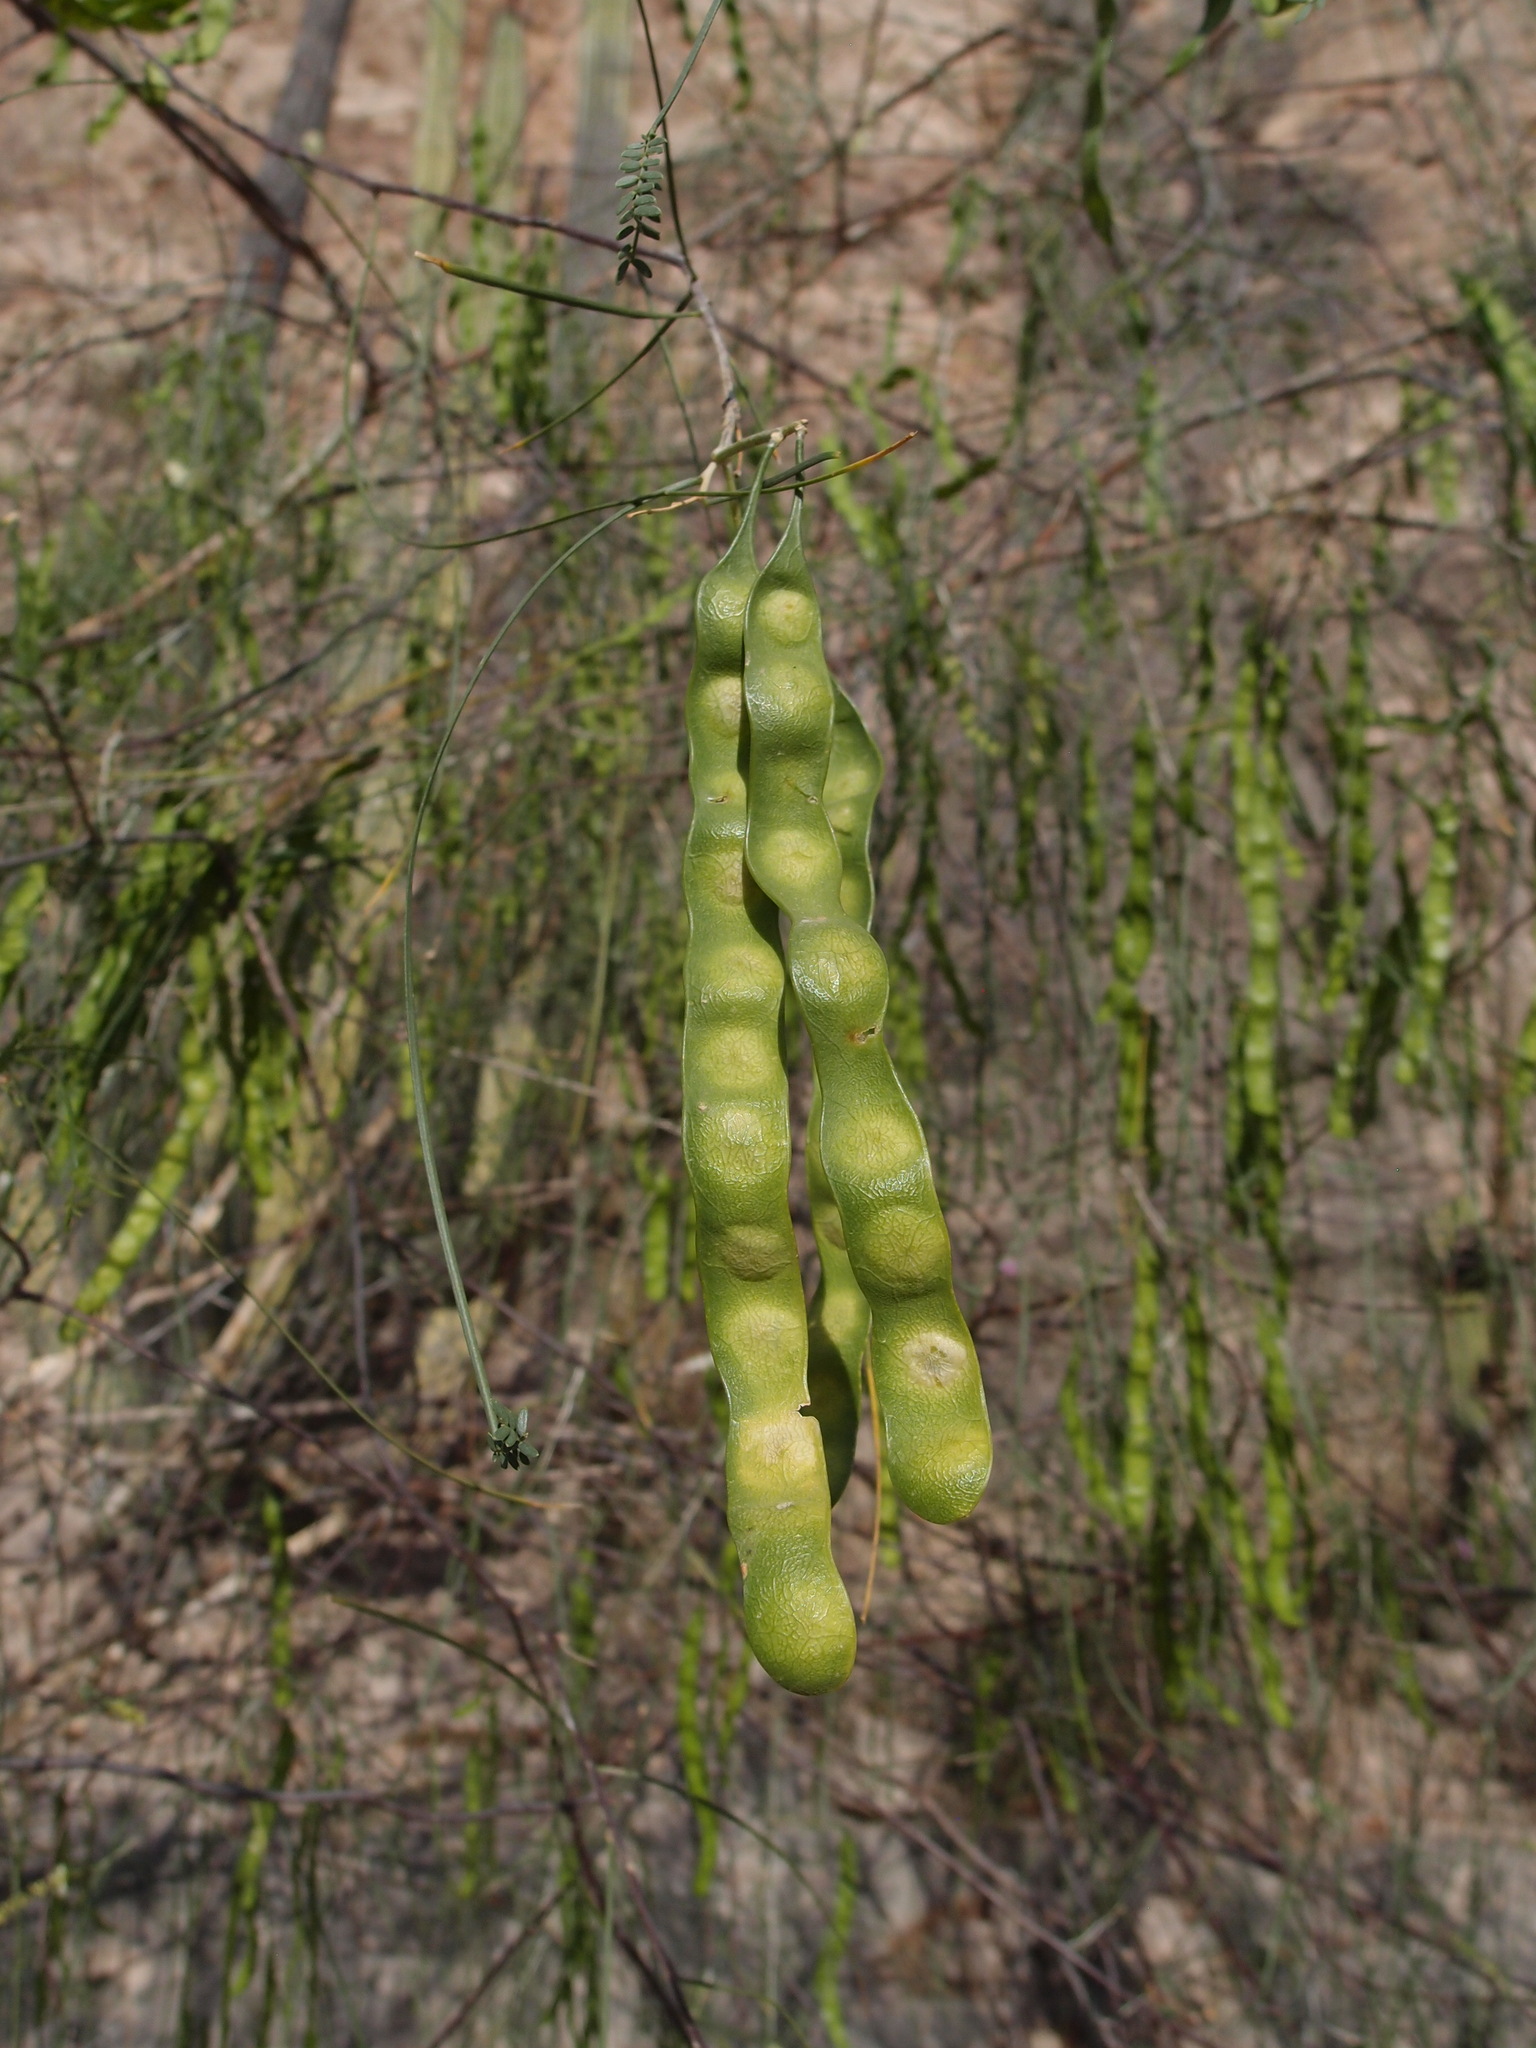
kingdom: Plantae
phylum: Tracheophyta
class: Magnoliopsida
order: Fabales
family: Fabaceae
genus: Mariosousa
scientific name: Mariosousa heterophylla
